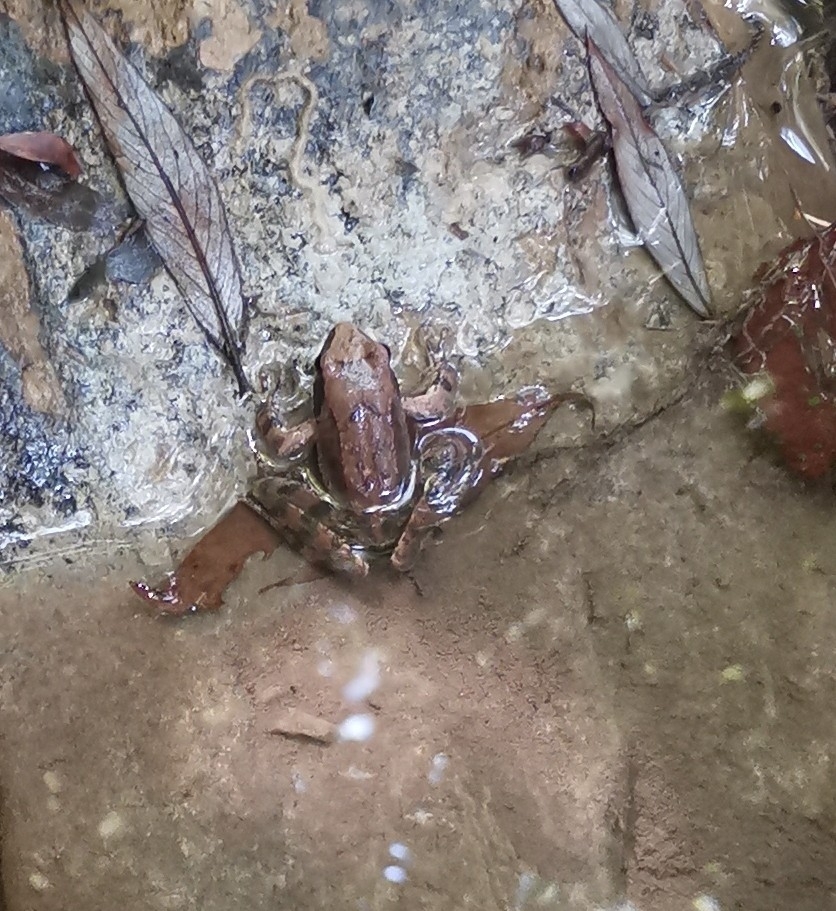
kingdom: Animalia
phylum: Chordata
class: Amphibia
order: Anura
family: Ranidae
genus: Rana
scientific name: Rana italica
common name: Italian stream frog
